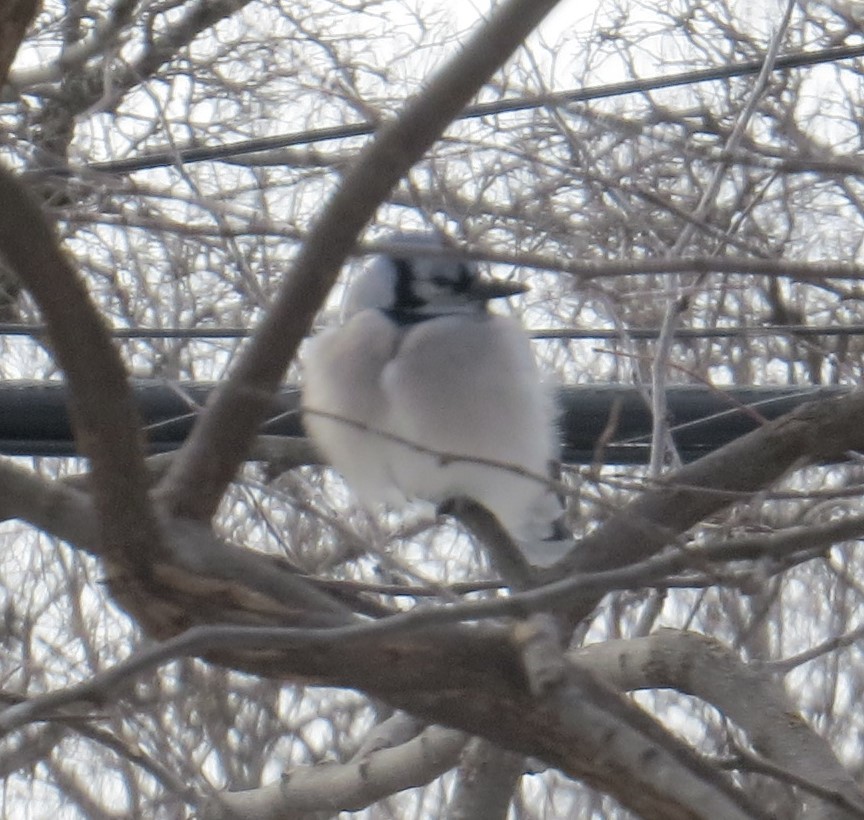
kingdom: Animalia
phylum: Chordata
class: Aves
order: Passeriformes
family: Corvidae
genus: Cyanocitta
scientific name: Cyanocitta cristata
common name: Blue jay
